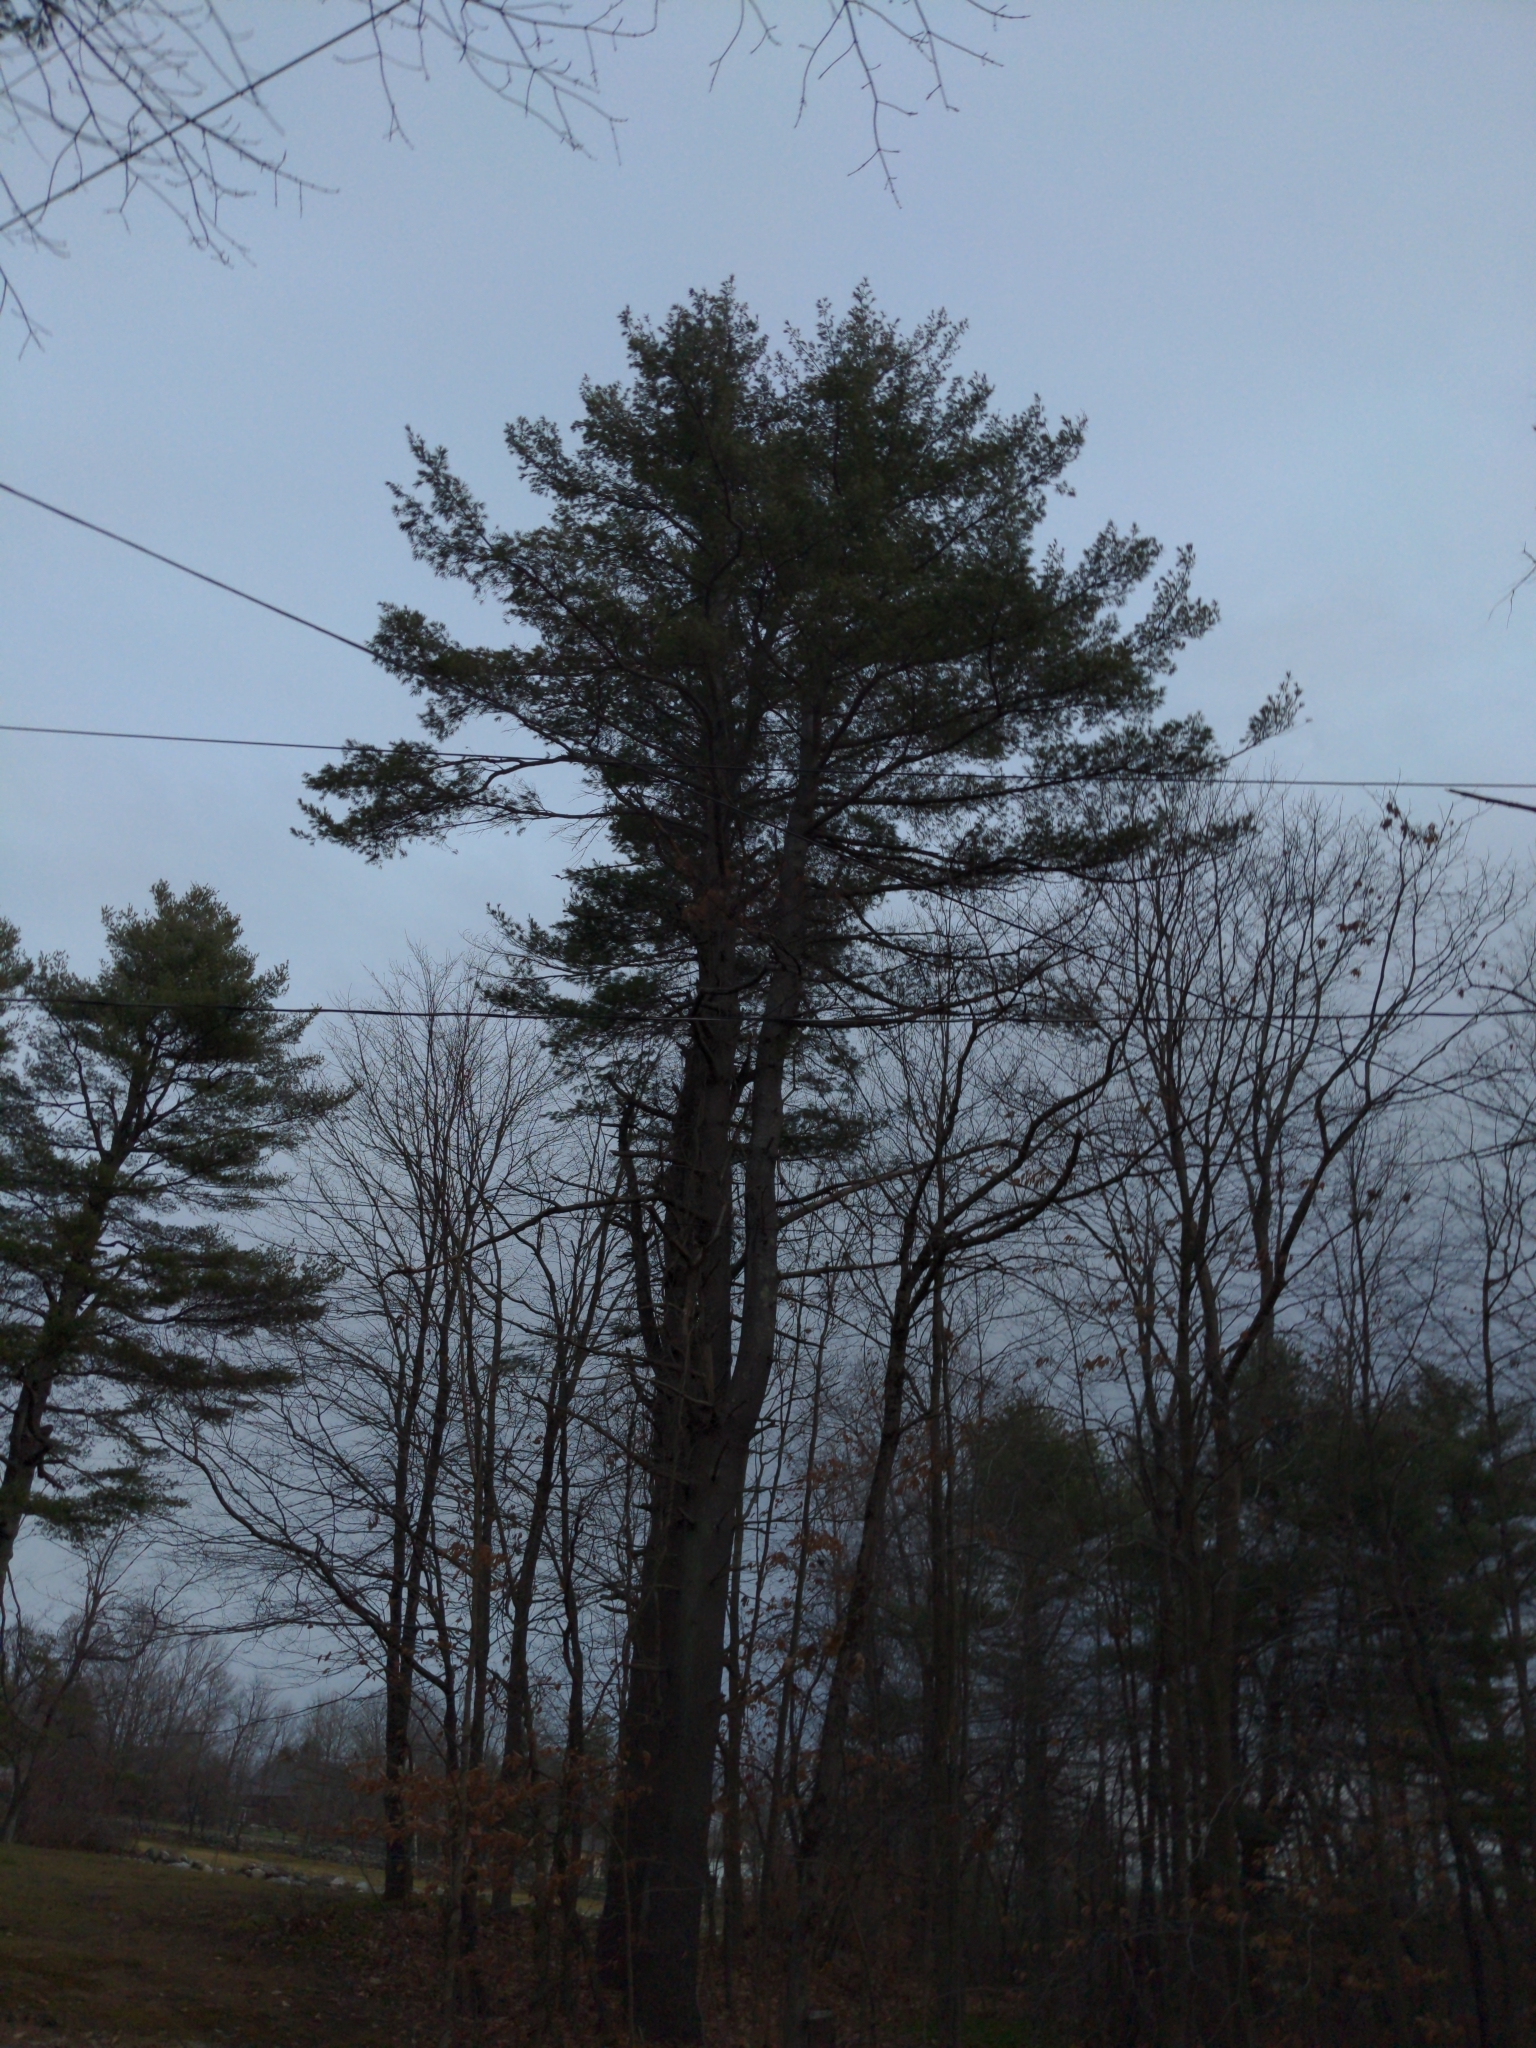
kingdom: Plantae
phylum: Tracheophyta
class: Pinopsida
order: Pinales
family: Pinaceae
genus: Pinus
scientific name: Pinus strobus
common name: Weymouth pine
